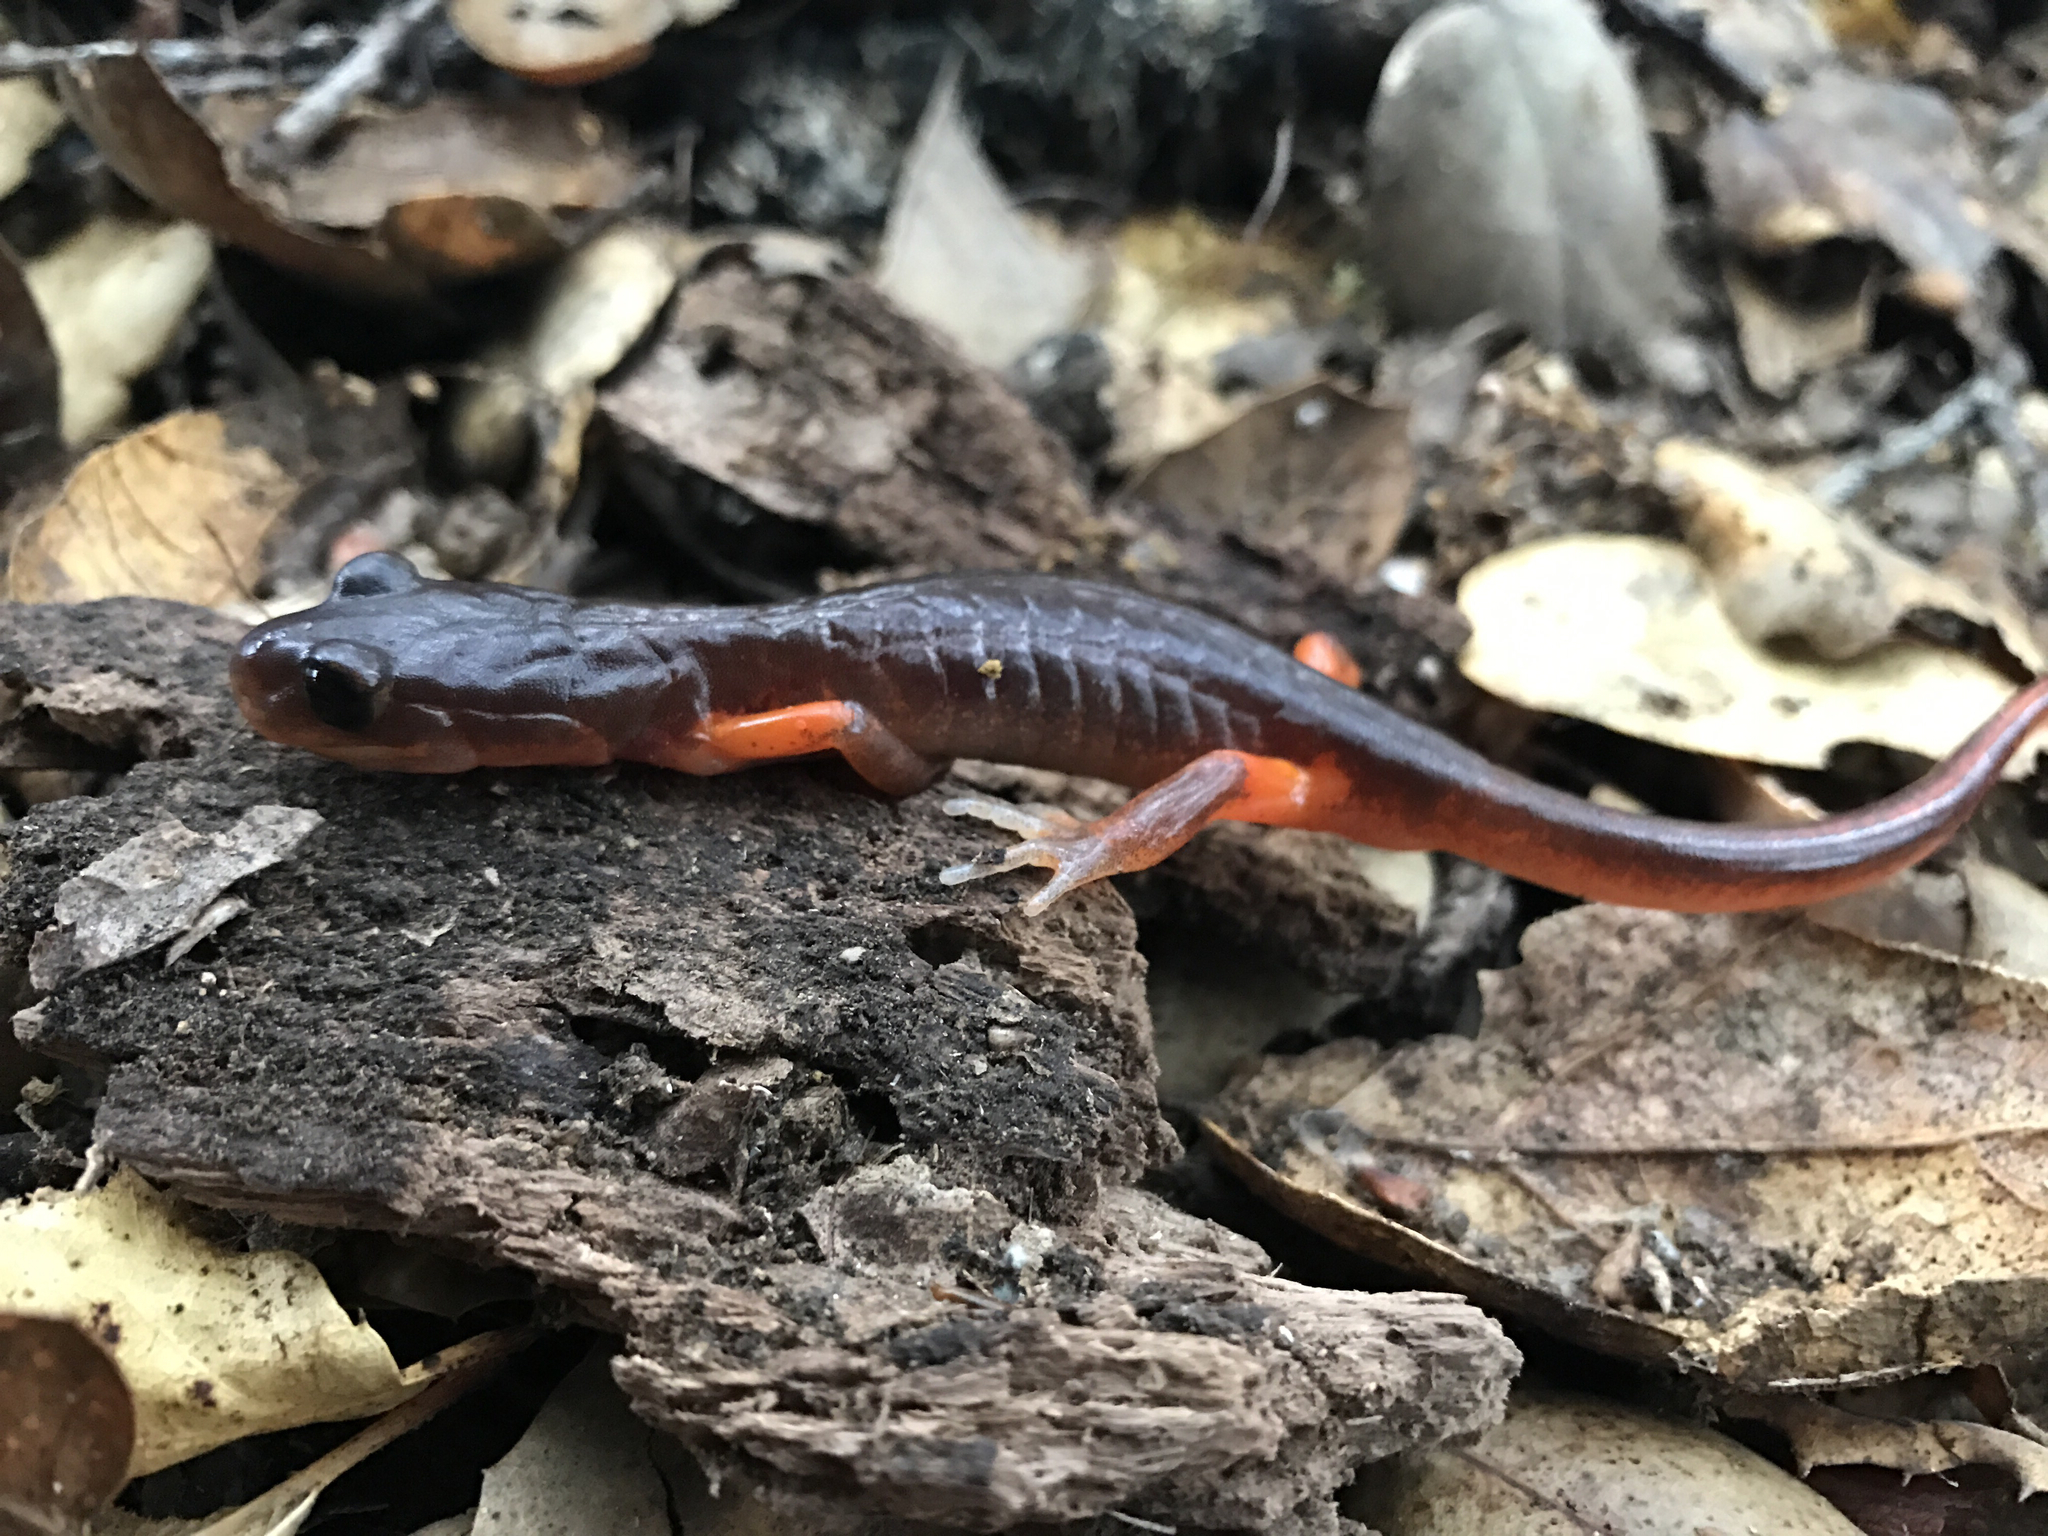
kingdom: Animalia
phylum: Chordata
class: Amphibia
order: Caudata
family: Plethodontidae
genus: Ensatina
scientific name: Ensatina eschscholtzii
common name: Ensatina
